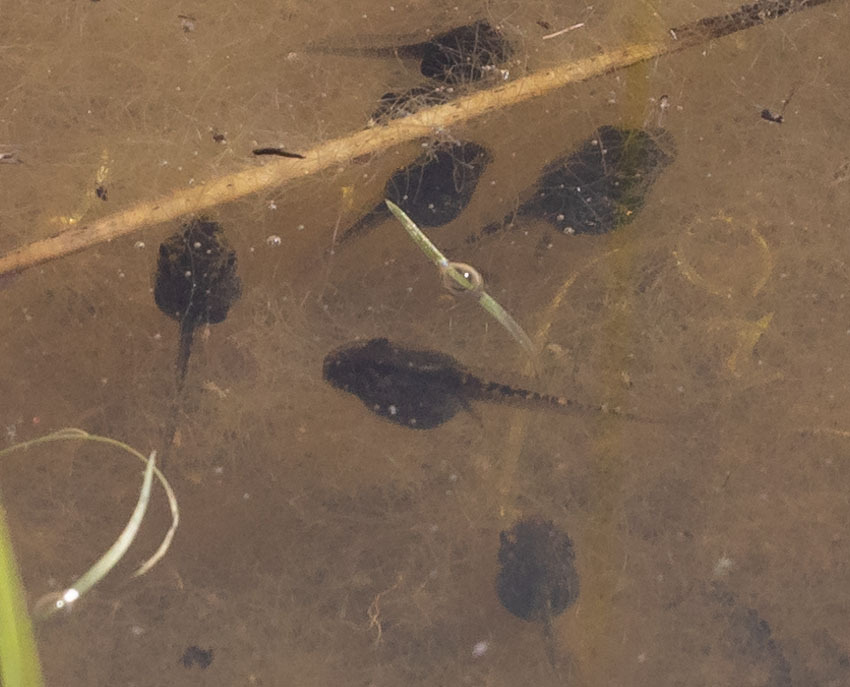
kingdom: Animalia
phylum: Chordata
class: Amphibia
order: Anura
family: Hylidae
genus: Pseudacris
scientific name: Pseudacris regilla
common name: Pacific chorus frog
